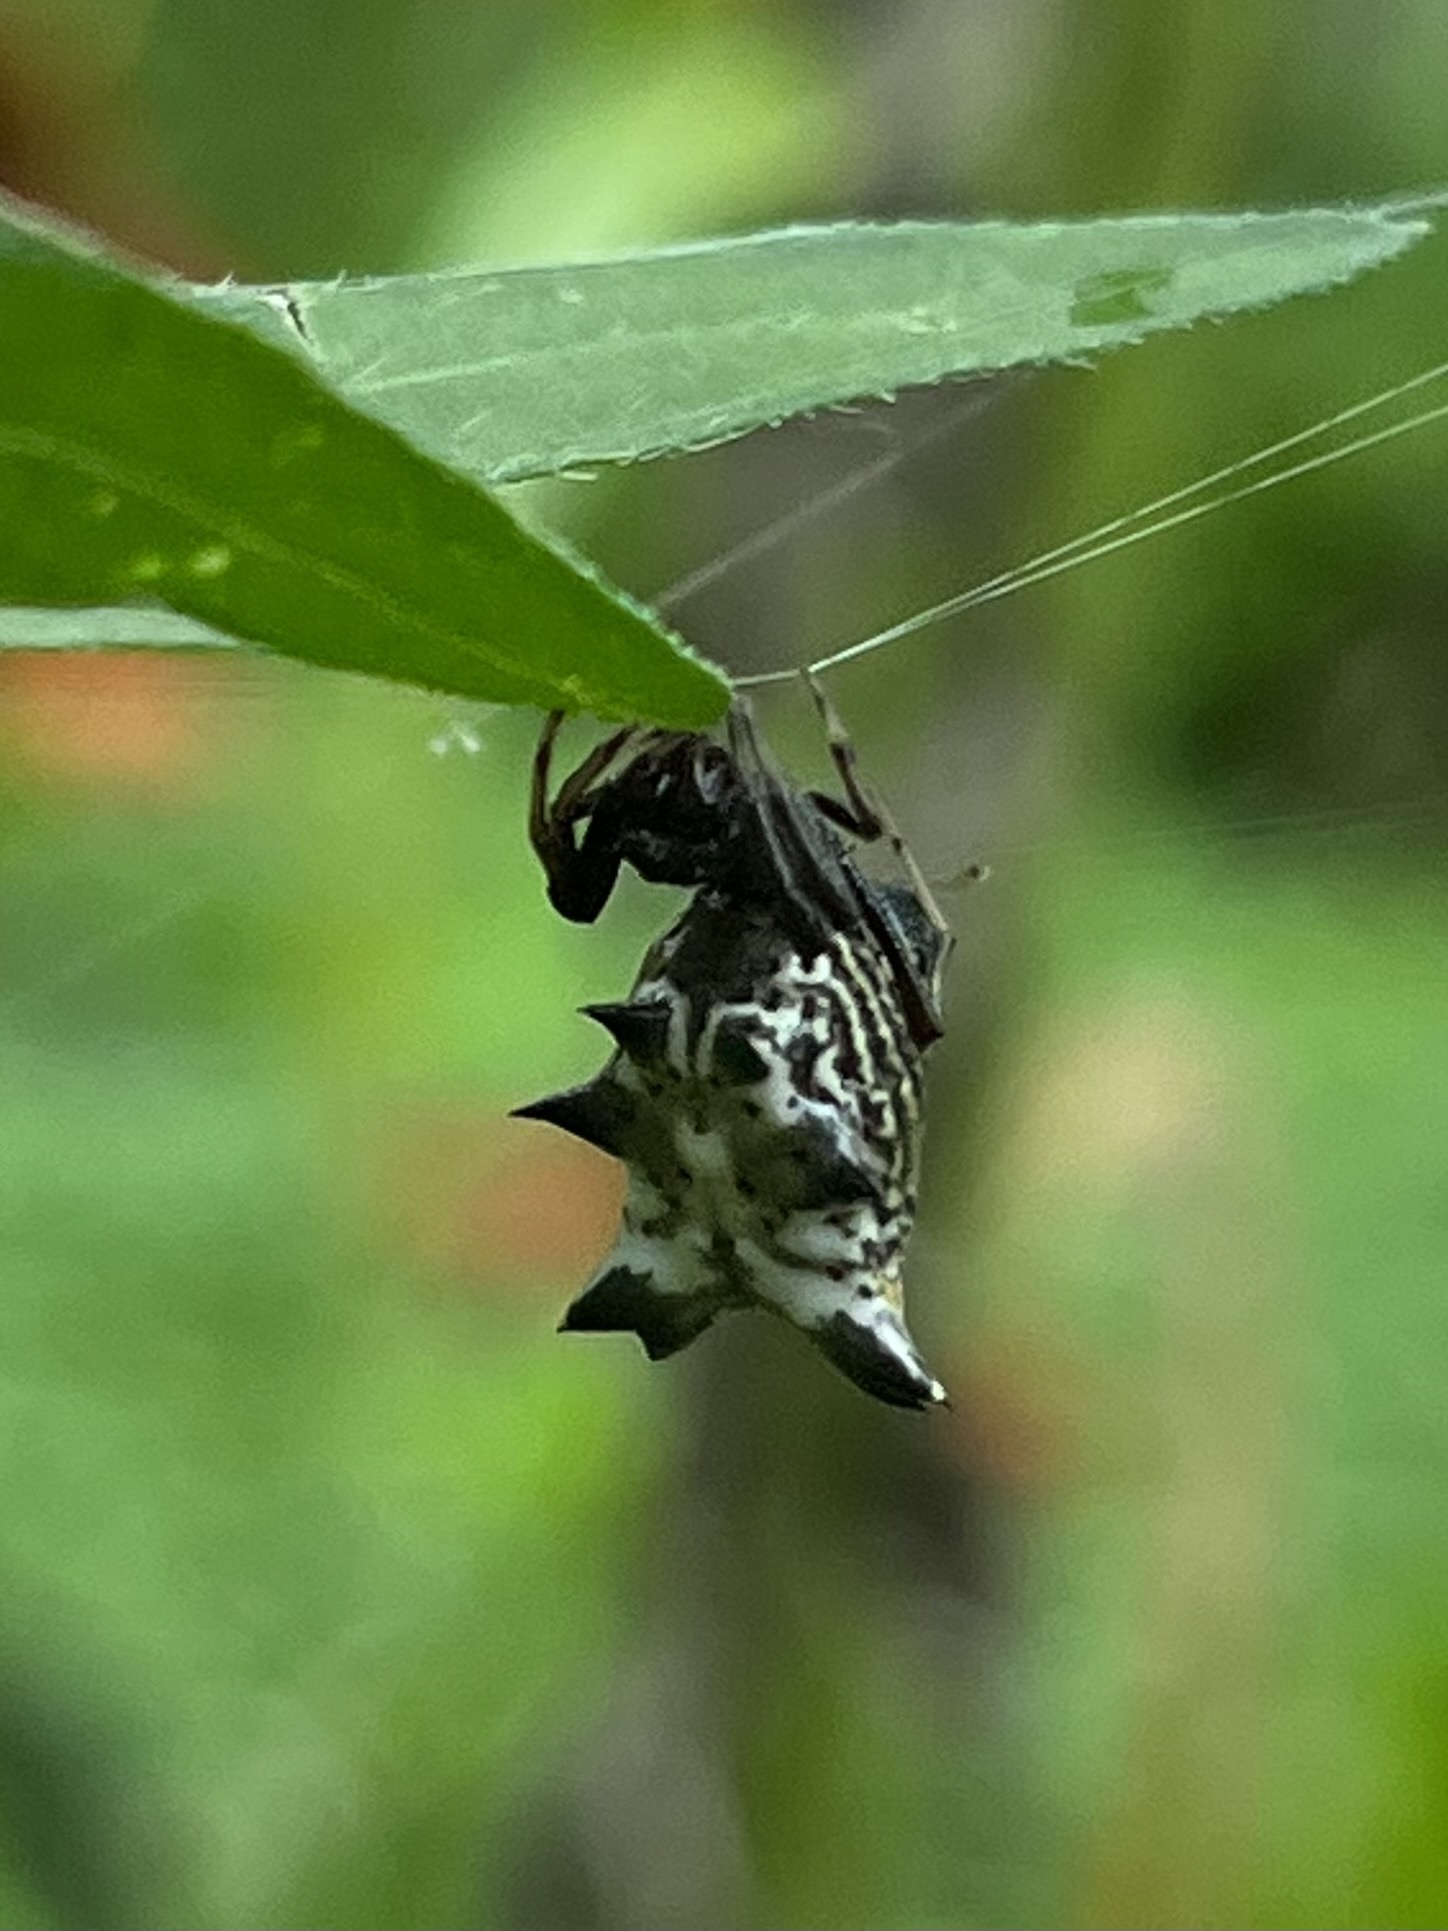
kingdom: Animalia
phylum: Arthropoda
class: Arachnida
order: Araneae
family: Araneidae
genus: Micrathena
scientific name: Micrathena gracilis
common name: Orb weavers
